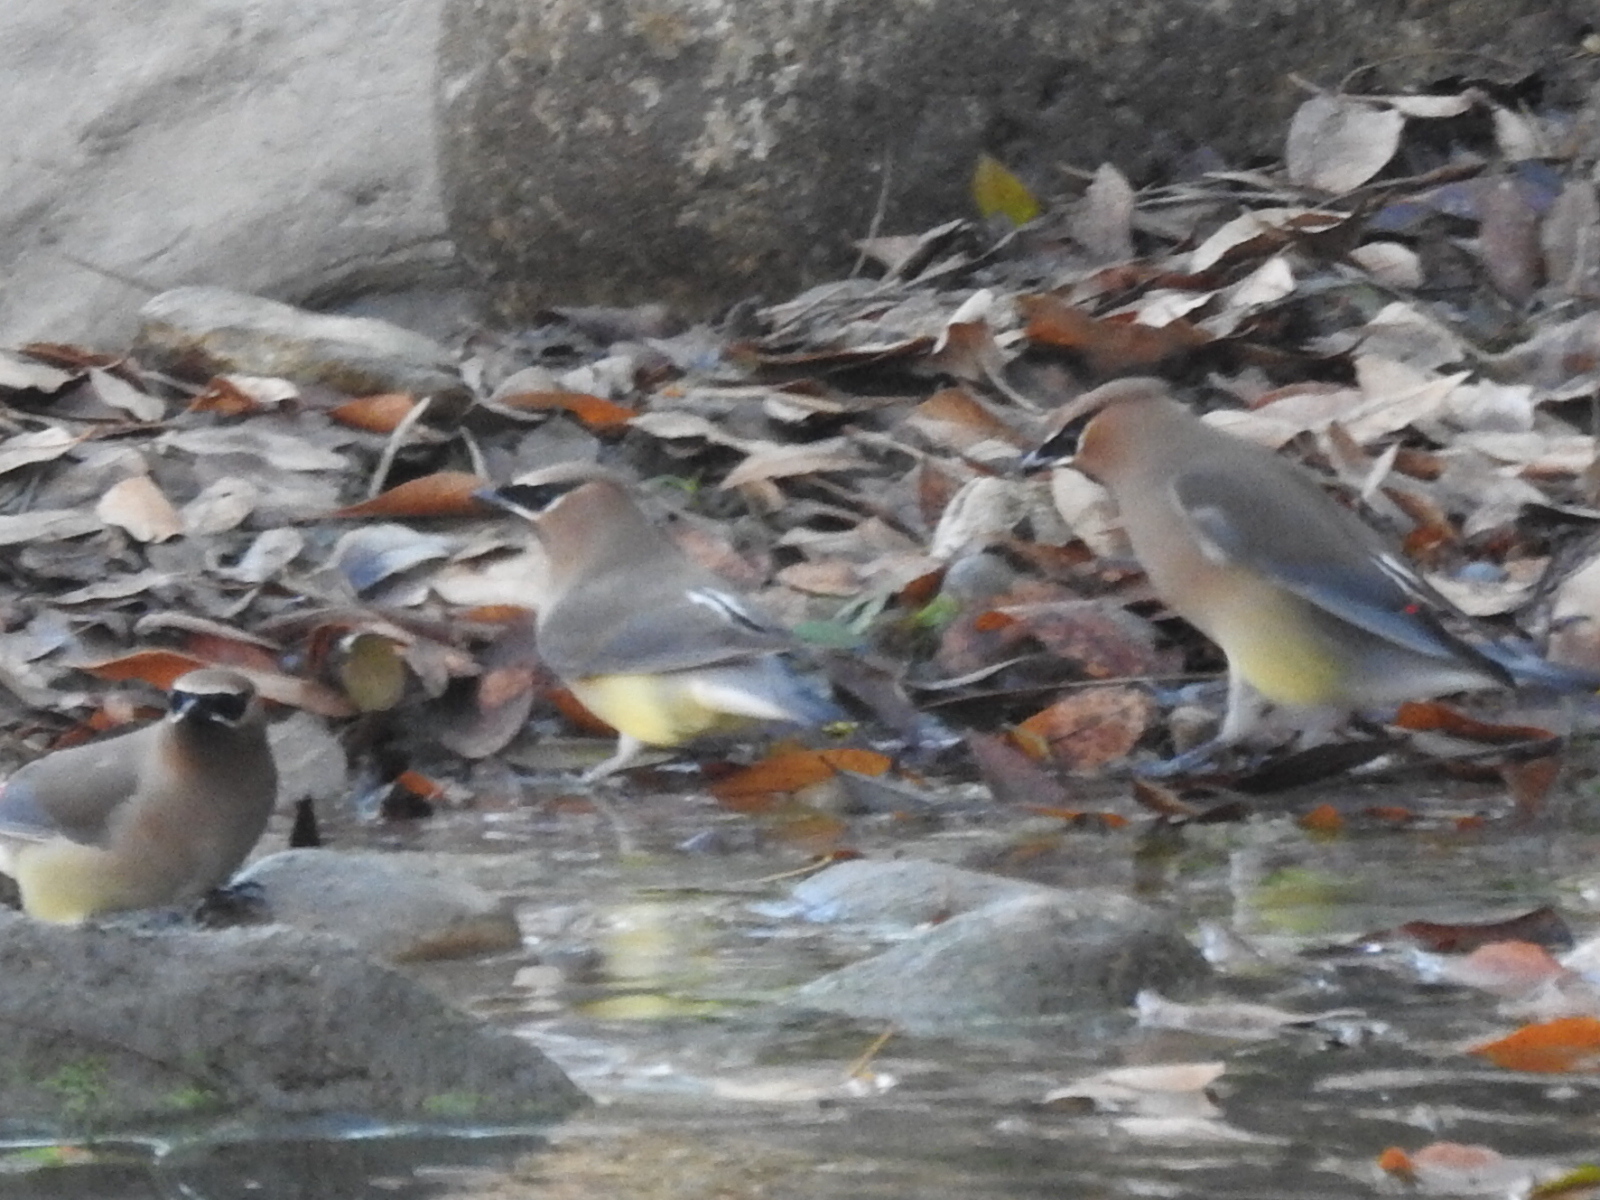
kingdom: Animalia
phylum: Chordata
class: Aves
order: Passeriformes
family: Bombycillidae
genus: Bombycilla
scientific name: Bombycilla cedrorum
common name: Cedar waxwing
